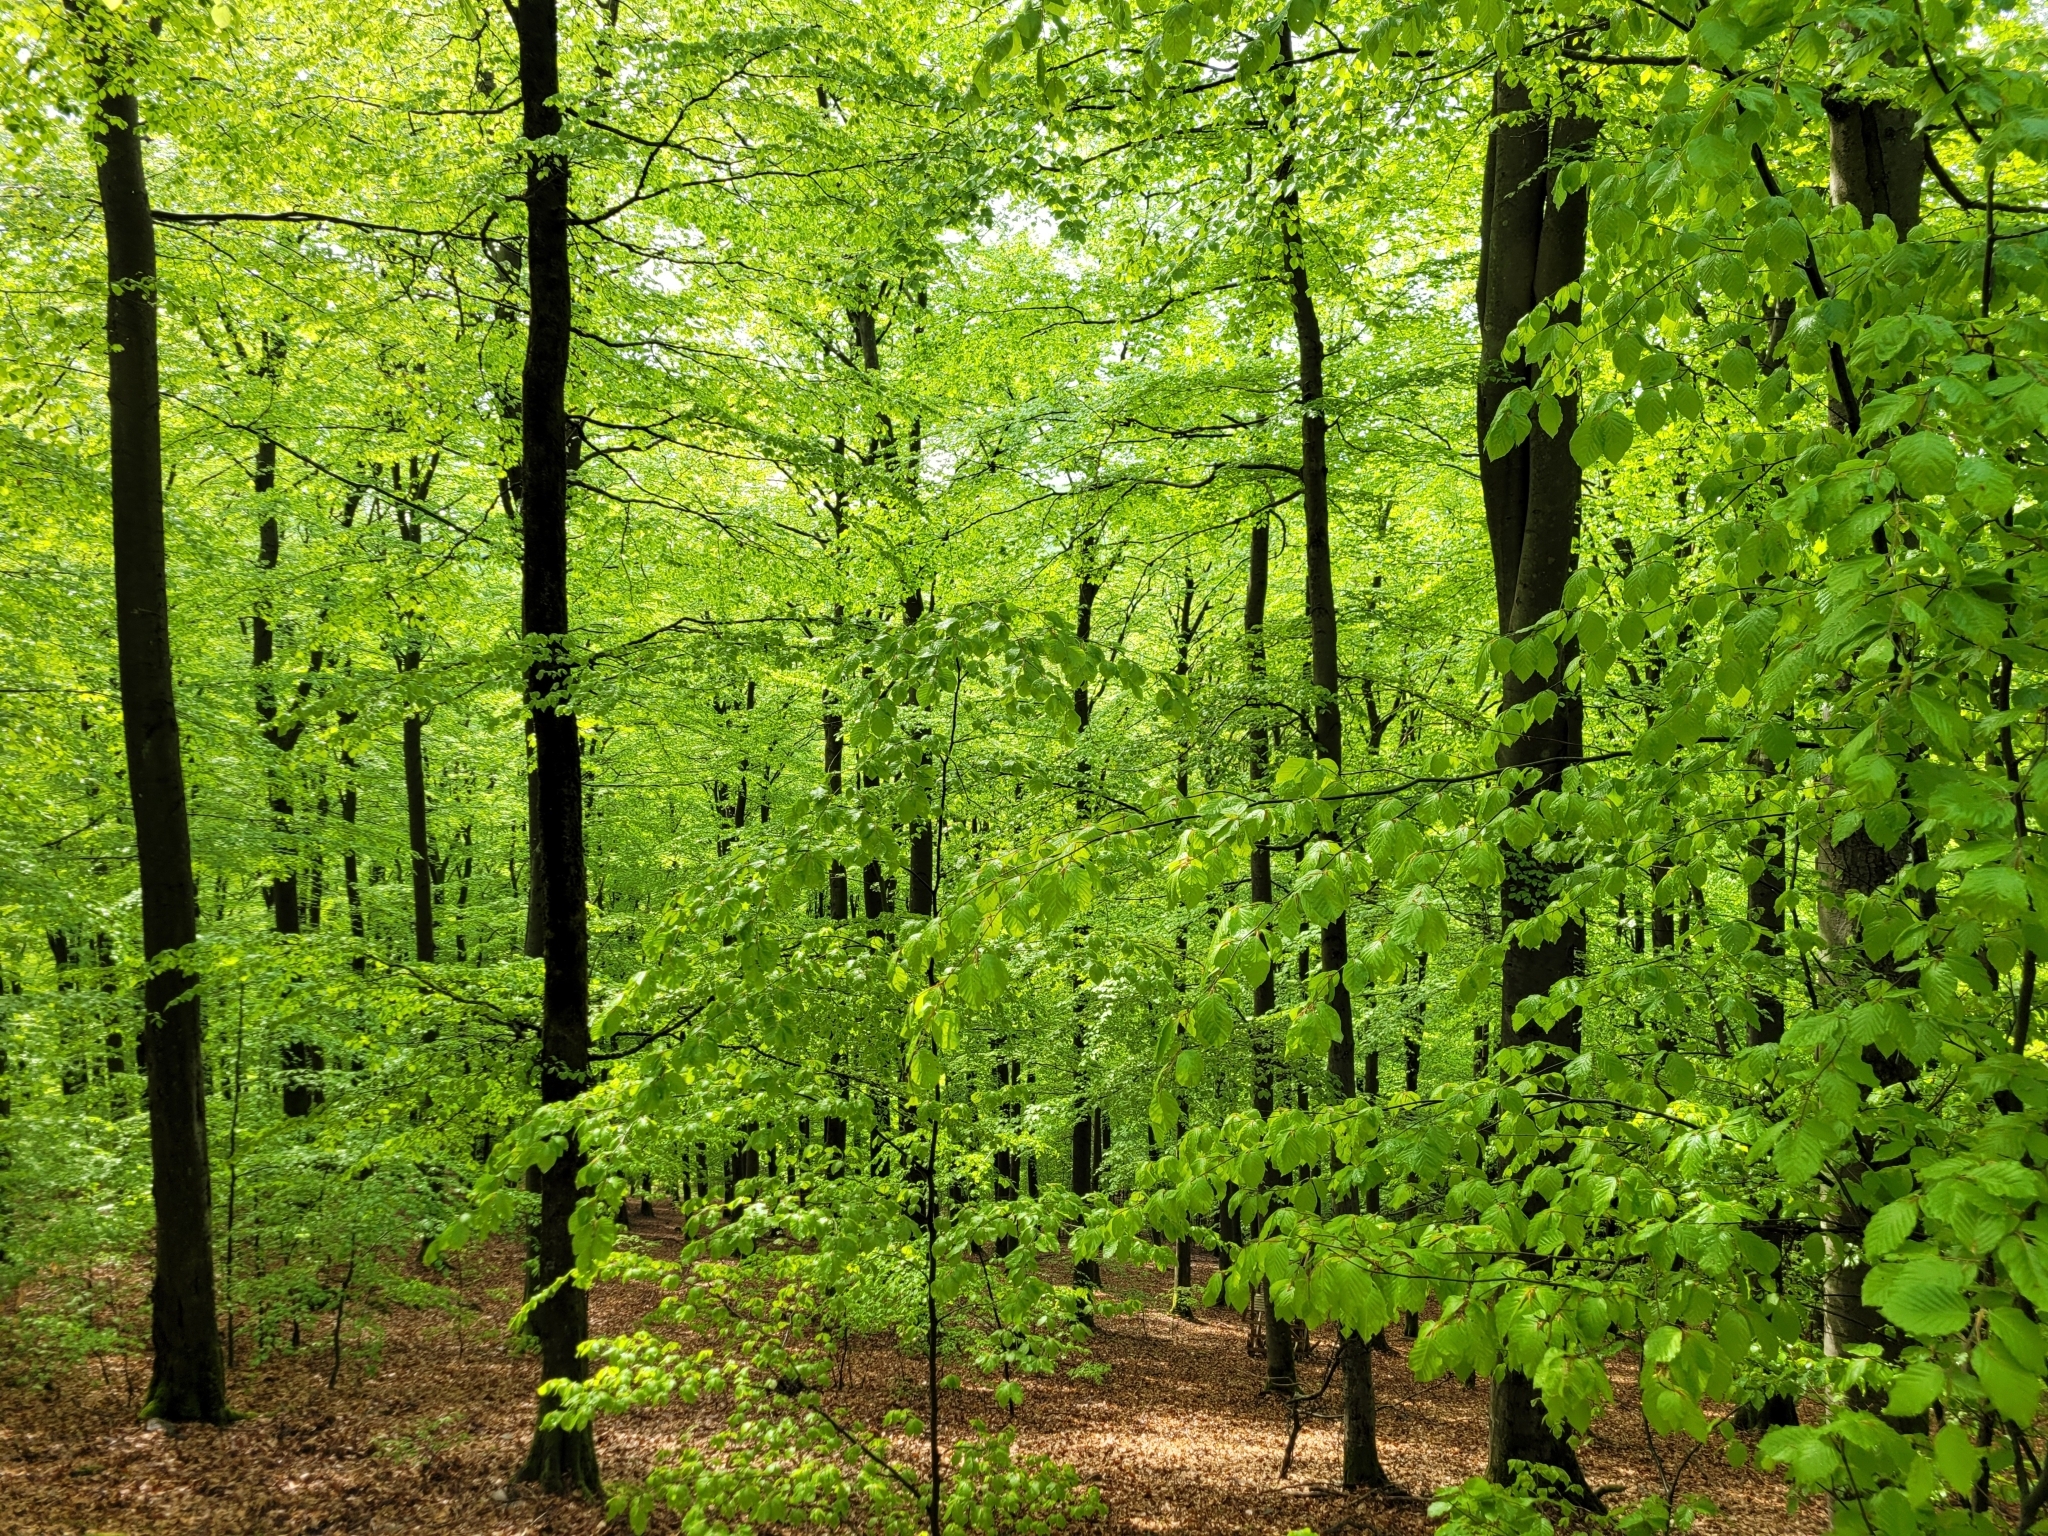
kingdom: Plantae
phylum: Tracheophyta
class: Magnoliopsida
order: Fagales
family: Fagaceae
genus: Fagus
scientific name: Fagus sylvatica
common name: Beech
